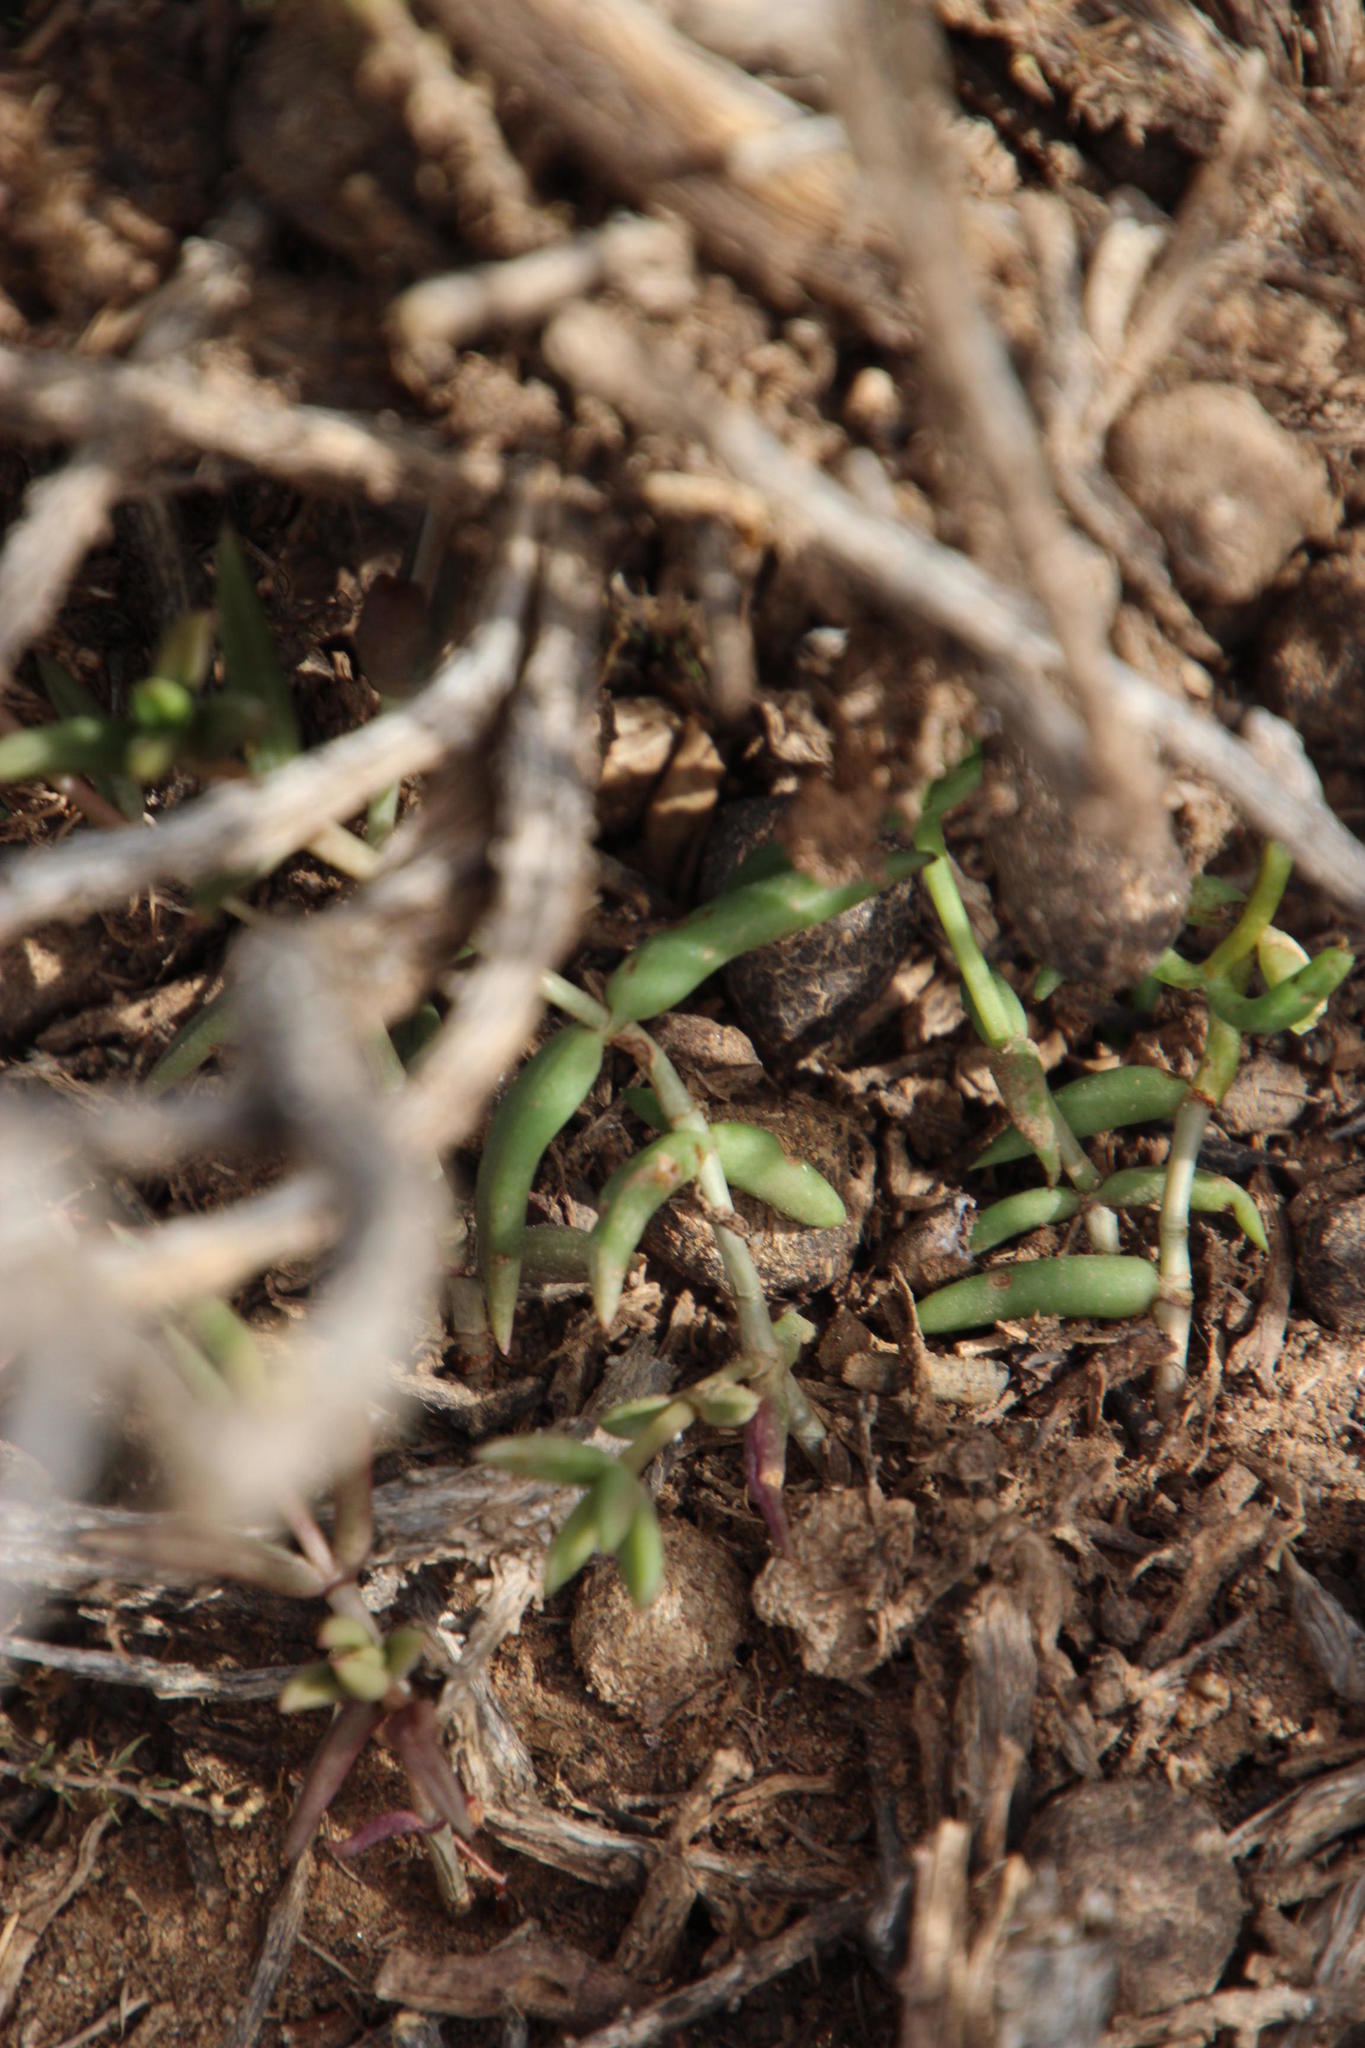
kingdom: Plantae
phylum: Tracheophyta
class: Magnoliopsida
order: Saxifragales
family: Crassulaceae
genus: Crassula
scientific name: Crassula tetragona
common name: Pygmyweed
